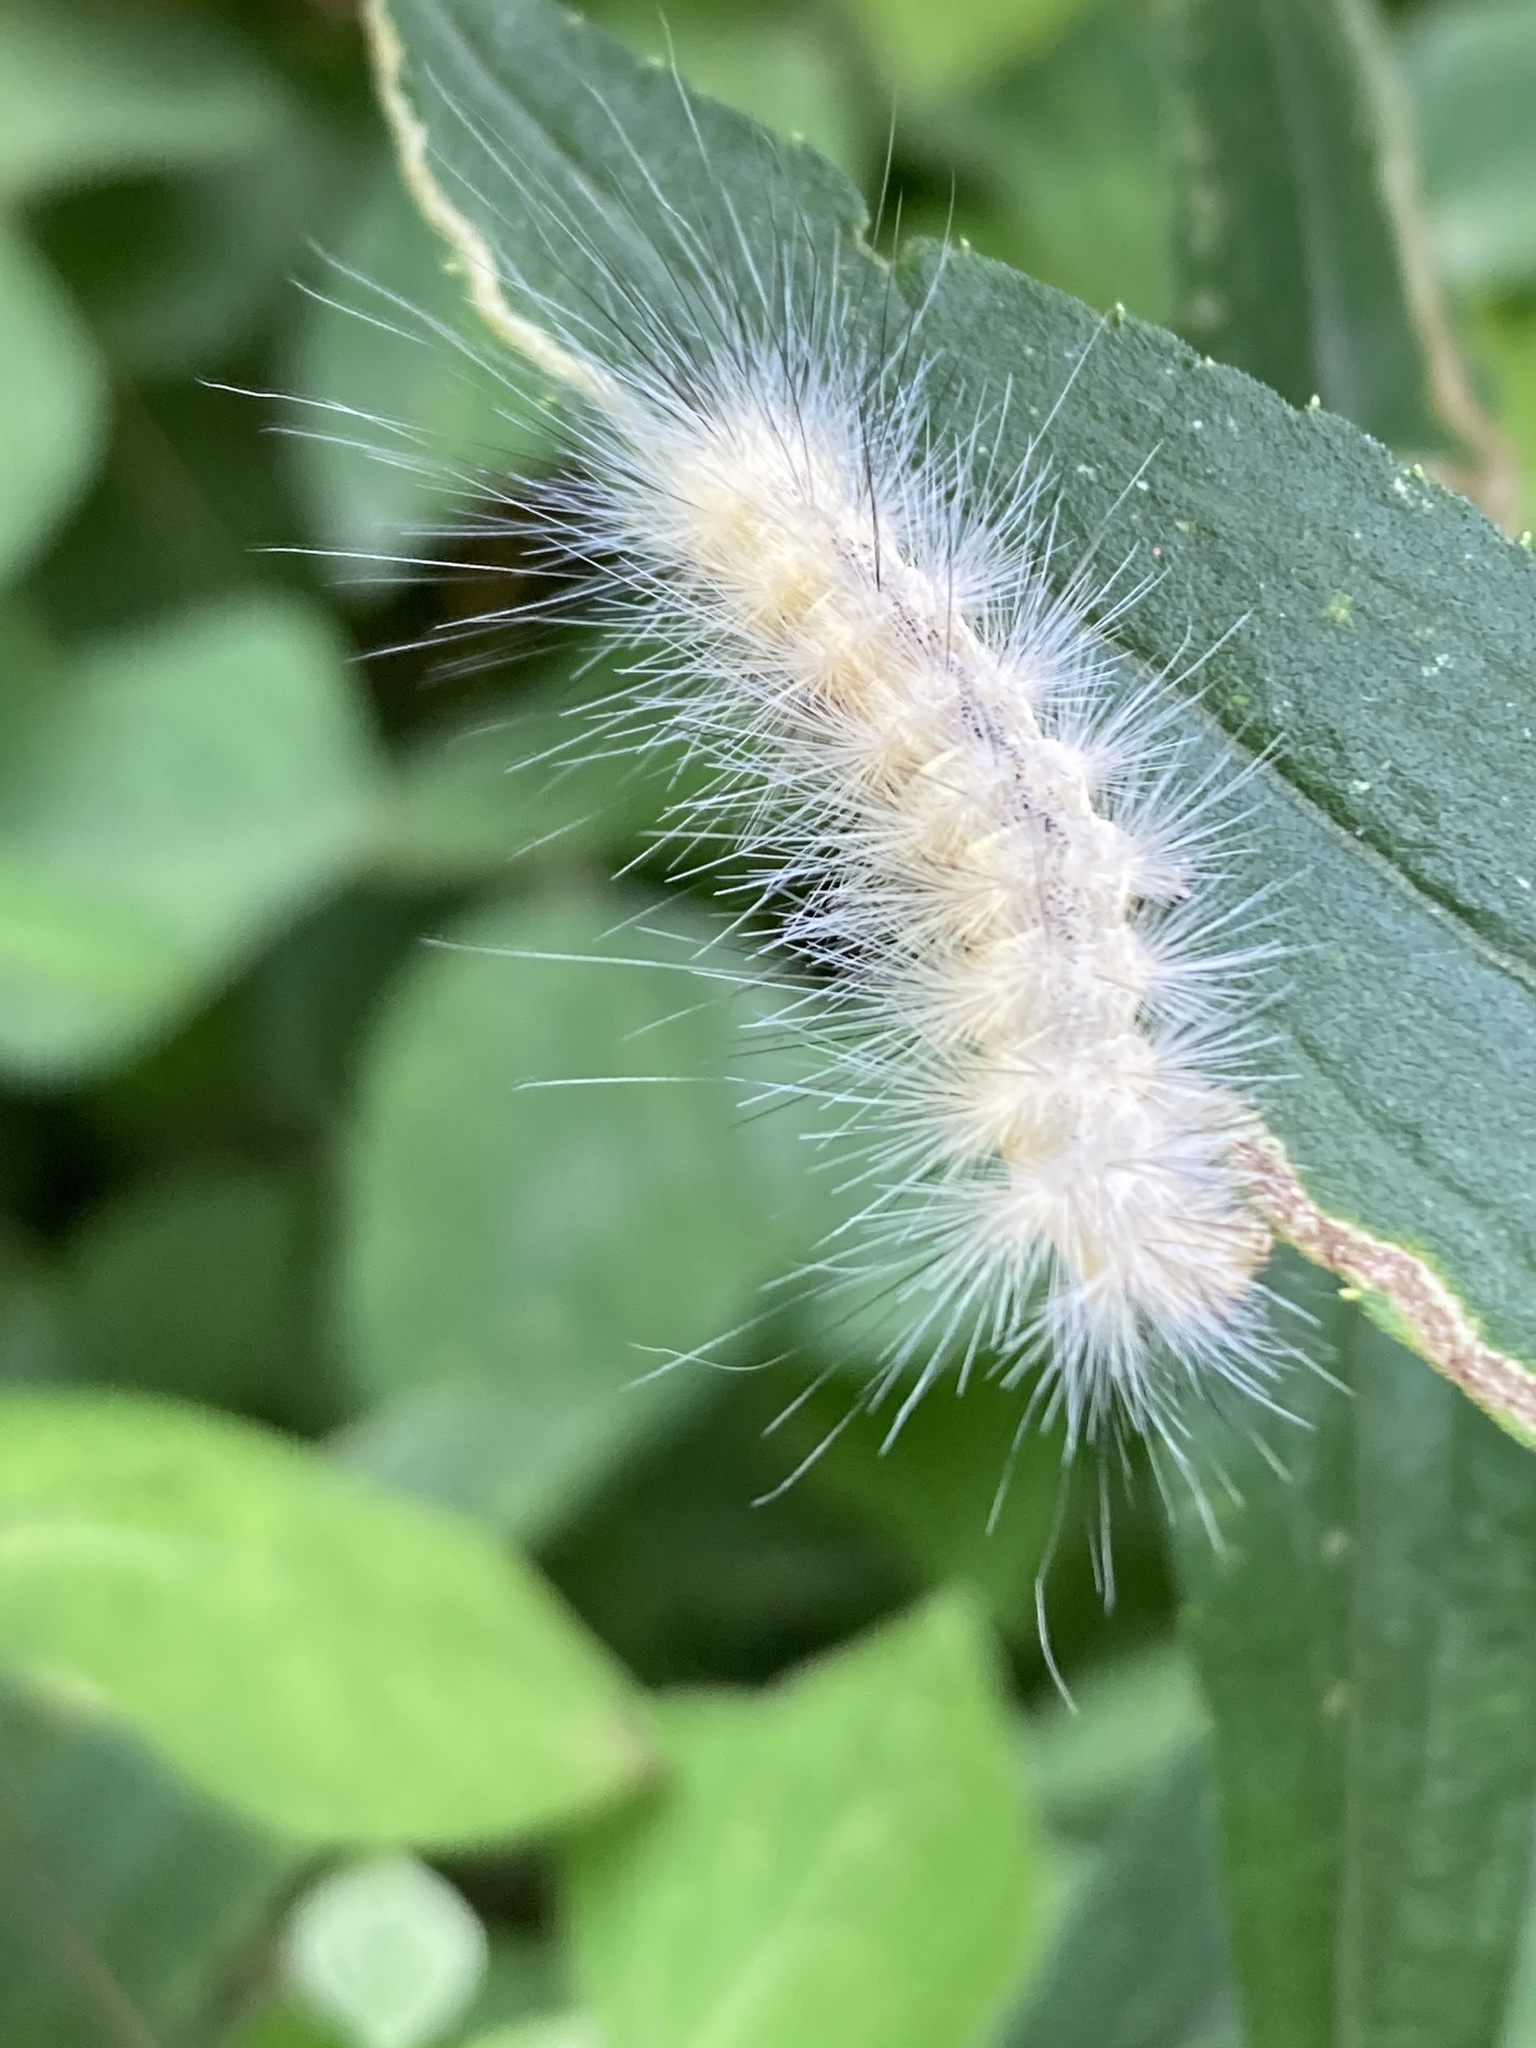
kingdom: Animalia
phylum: Arthropoda
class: Insecta
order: Lepidoptera
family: Erebidae
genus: Spilosoma
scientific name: Spilosoma virginica
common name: Virginia tiger moth
